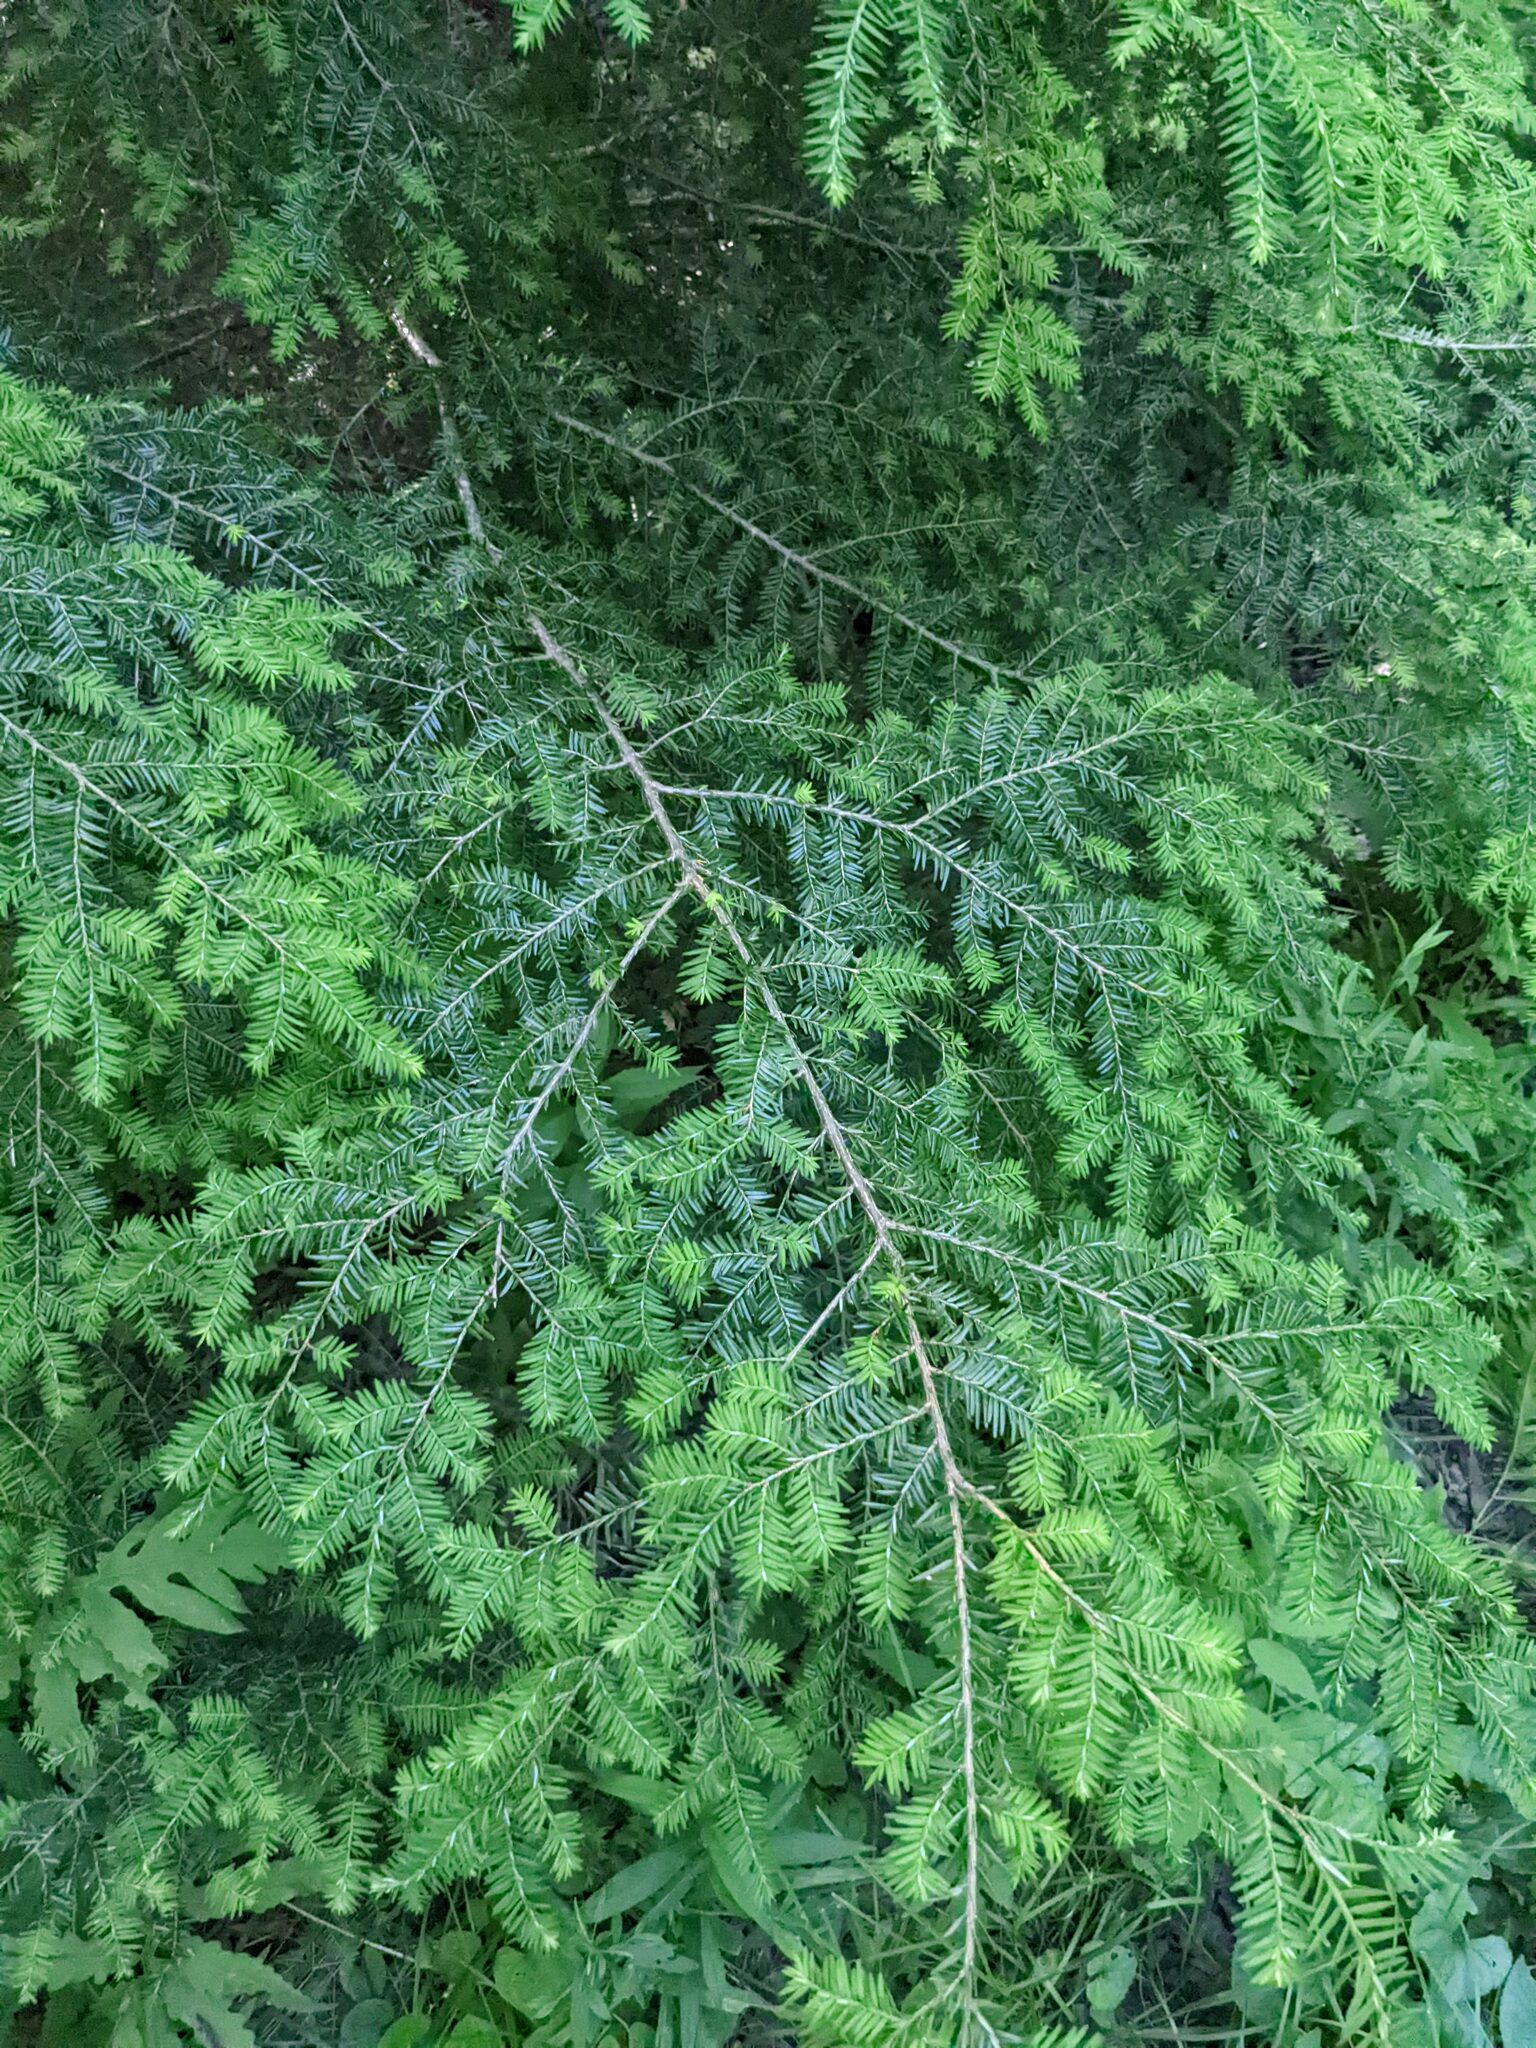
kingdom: Plantae
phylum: Tracheophyta
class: Pinopsida
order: Pinales
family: Pinaceae
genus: Tsuga
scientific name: Tsuga canadensis
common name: Eastern hemlock
